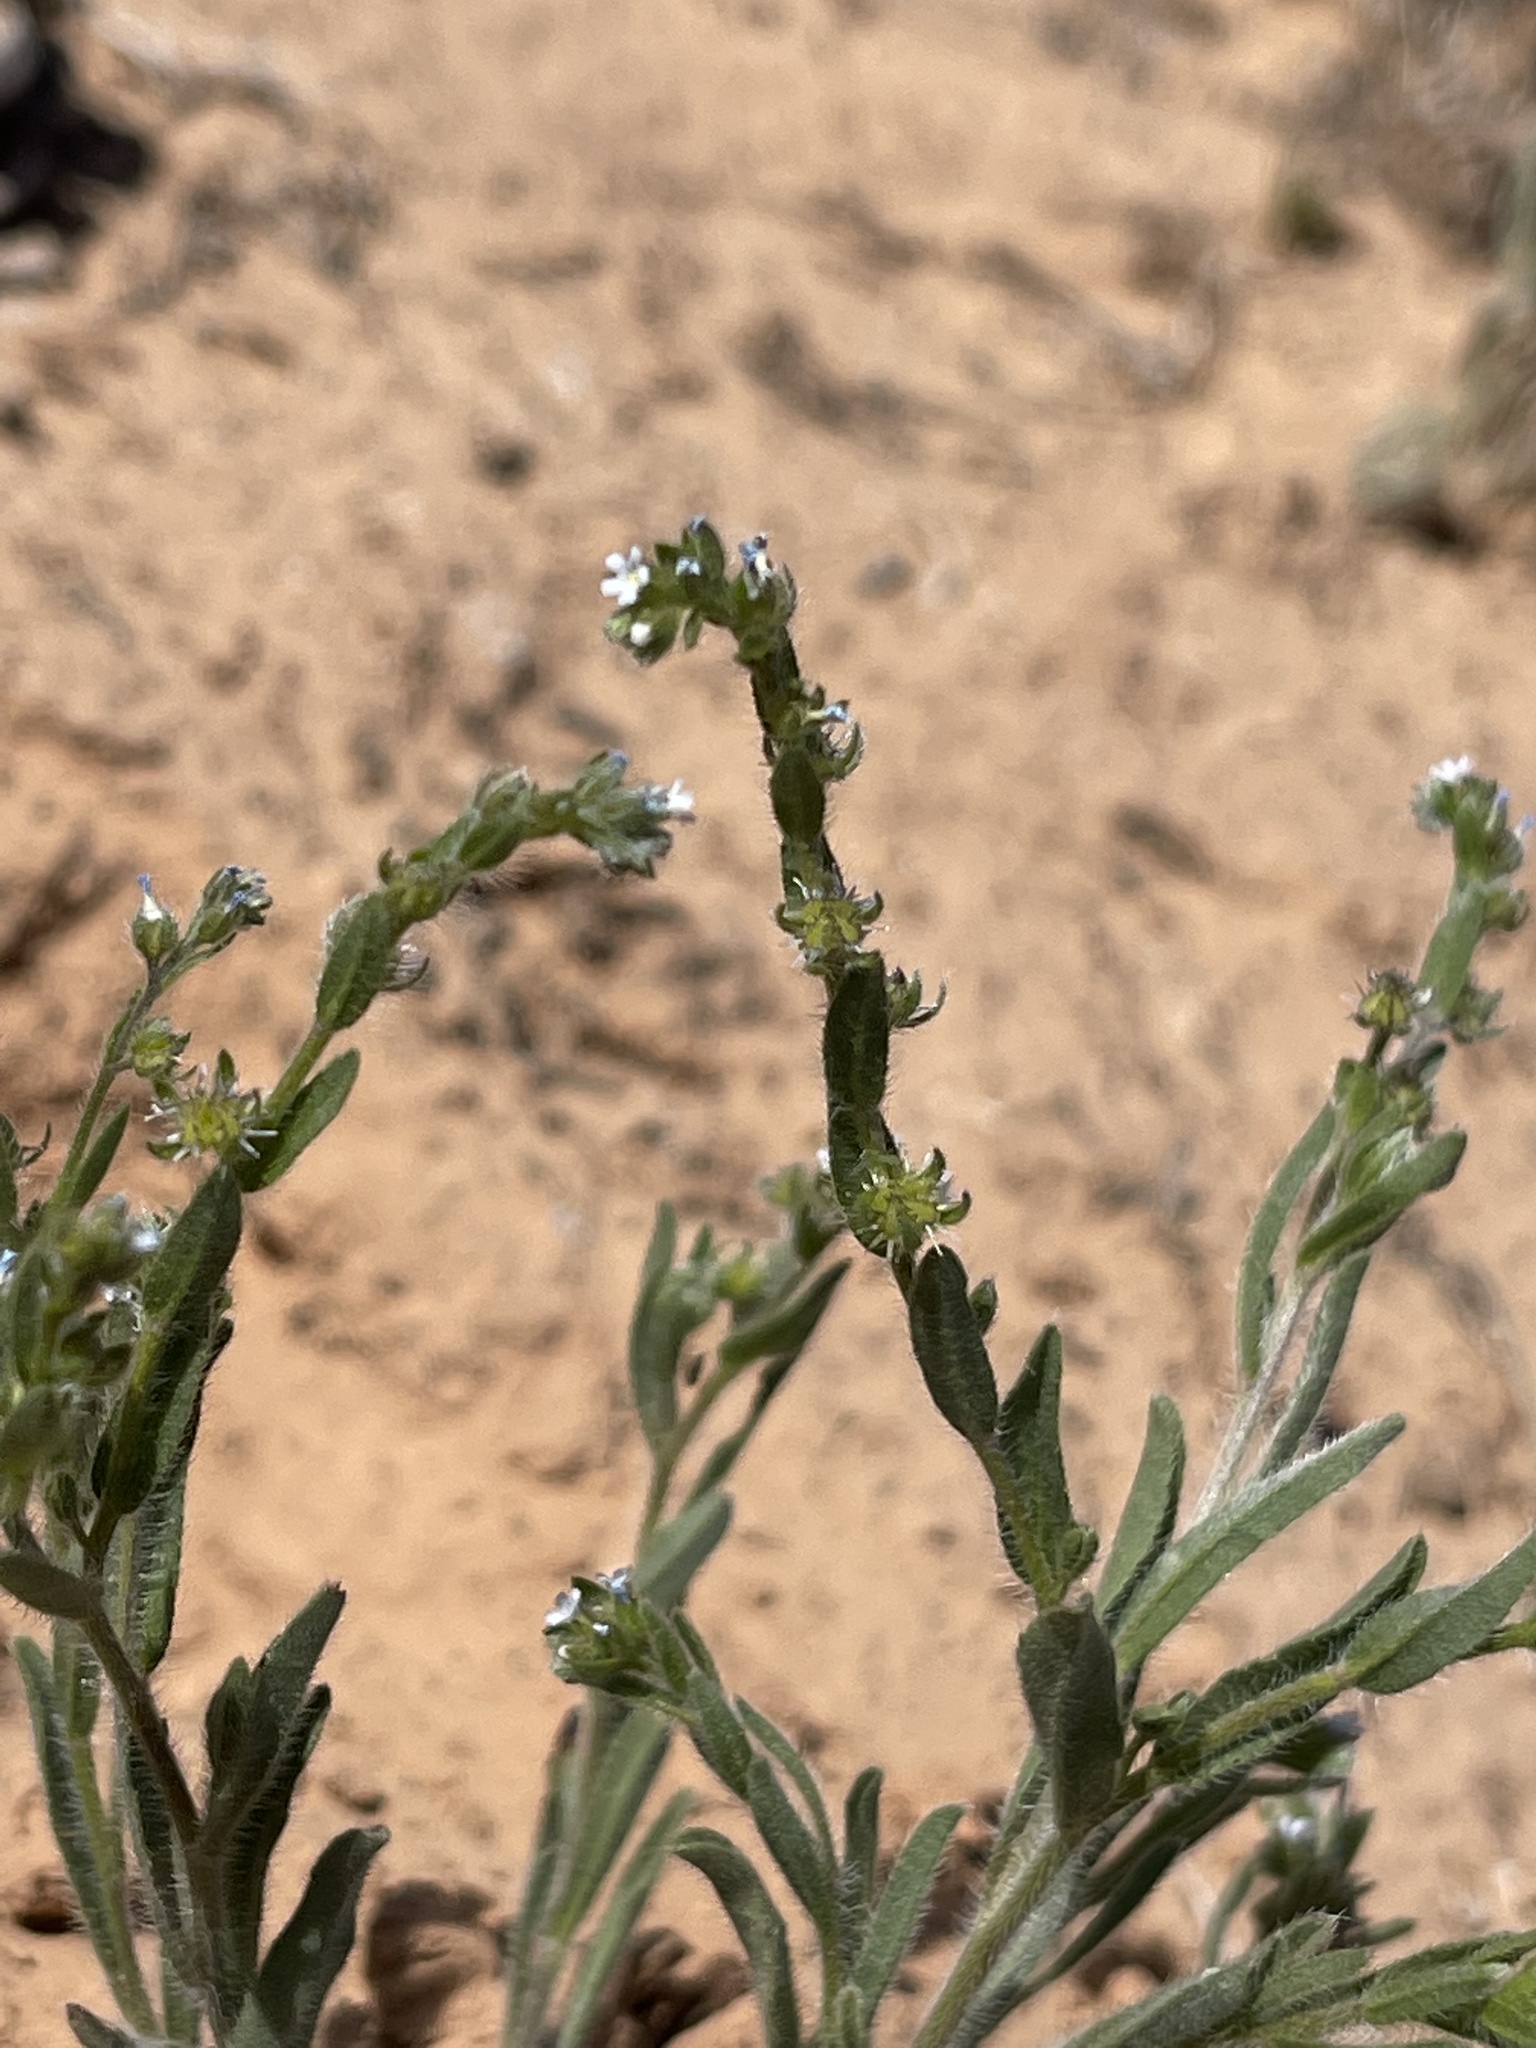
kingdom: Plantae
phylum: Tracheophyta
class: Magnoliopsida
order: Boraginales
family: Boraginaceae
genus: Lappula
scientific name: Lappula occidentalis
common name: Western stickseed
